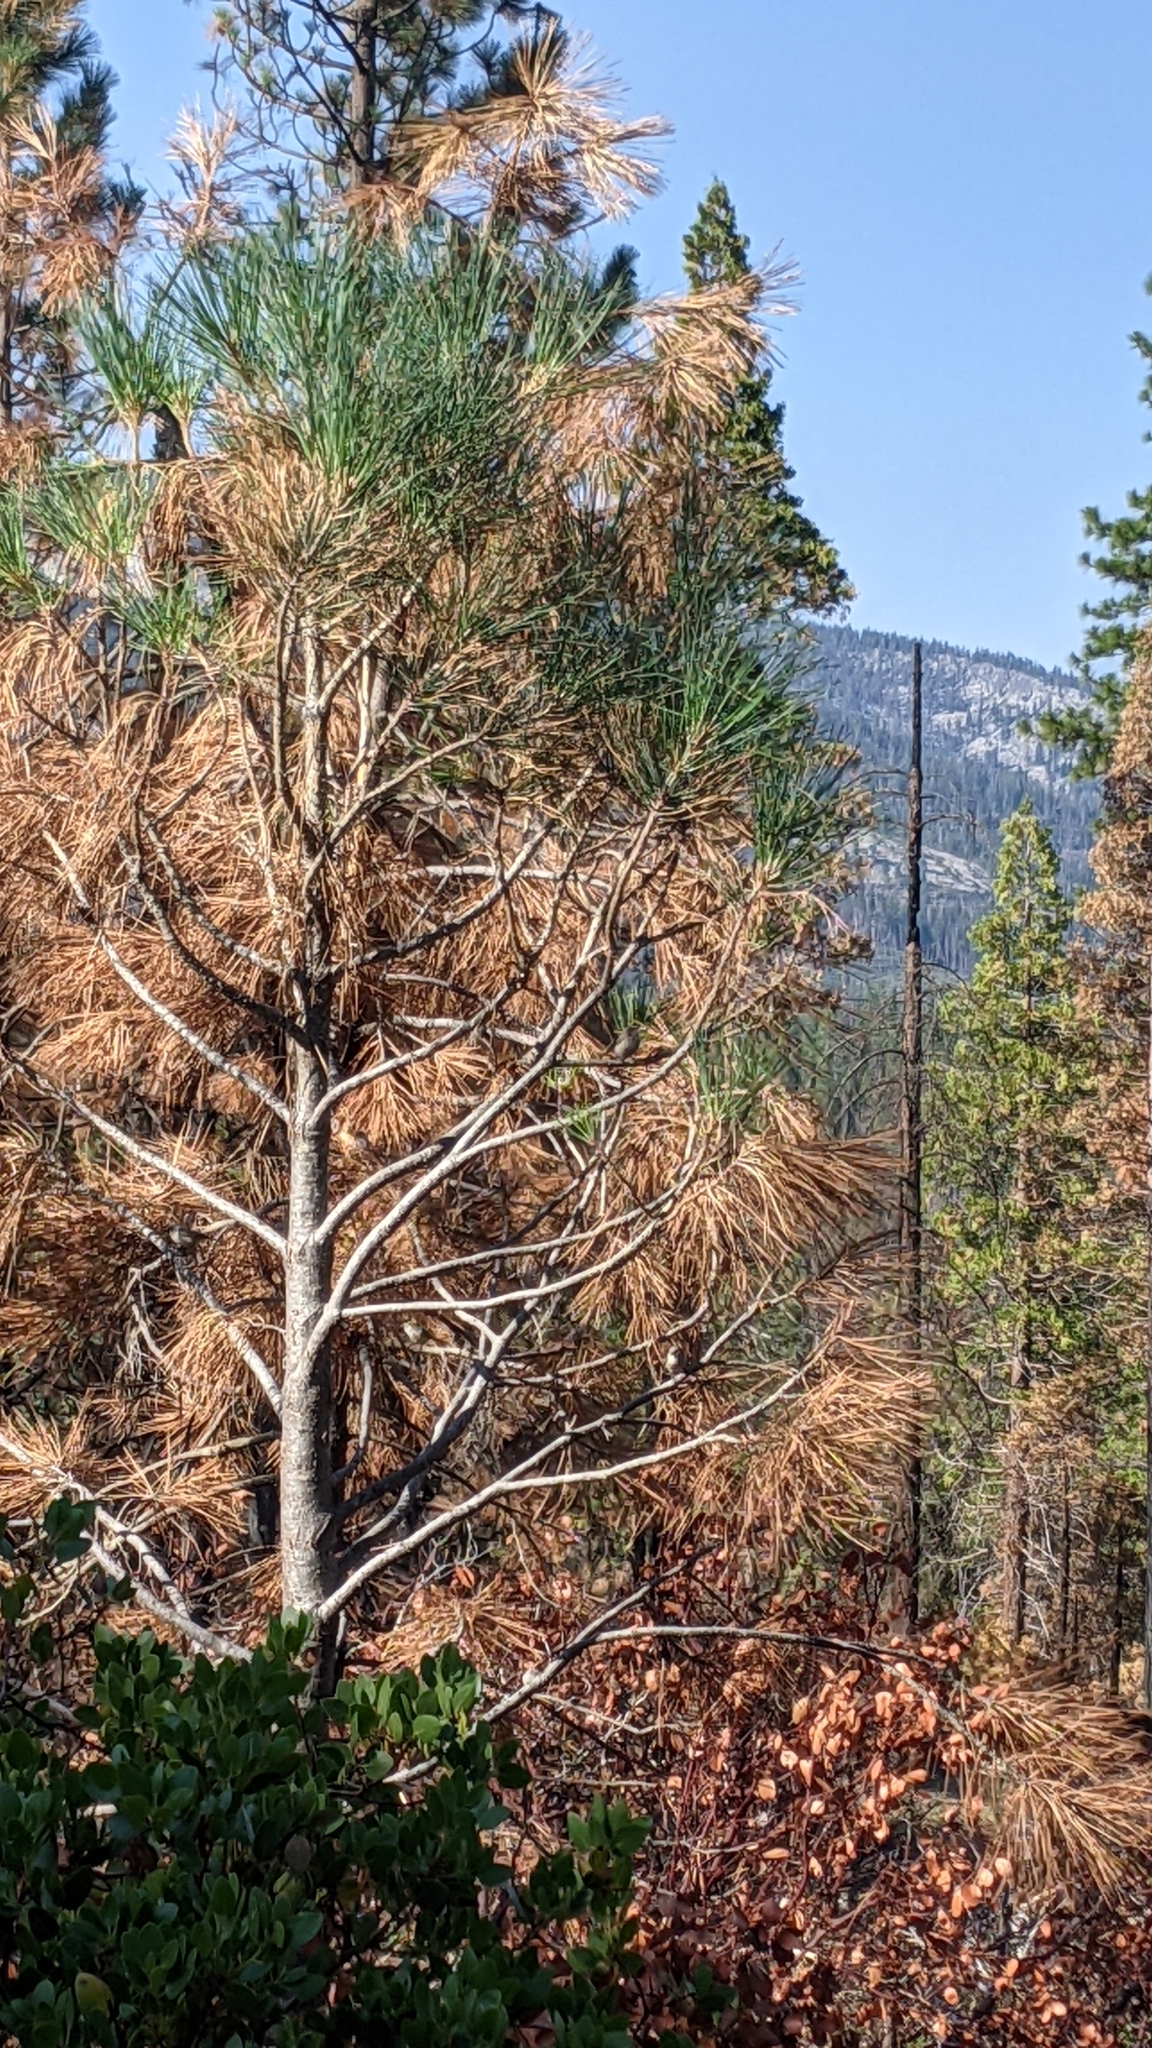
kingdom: Animalia
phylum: Chordata
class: Aves
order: Passeriformes
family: Aegithalidae
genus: Psaltriparus
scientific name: Psaltriparus minimus
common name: American bushtit
